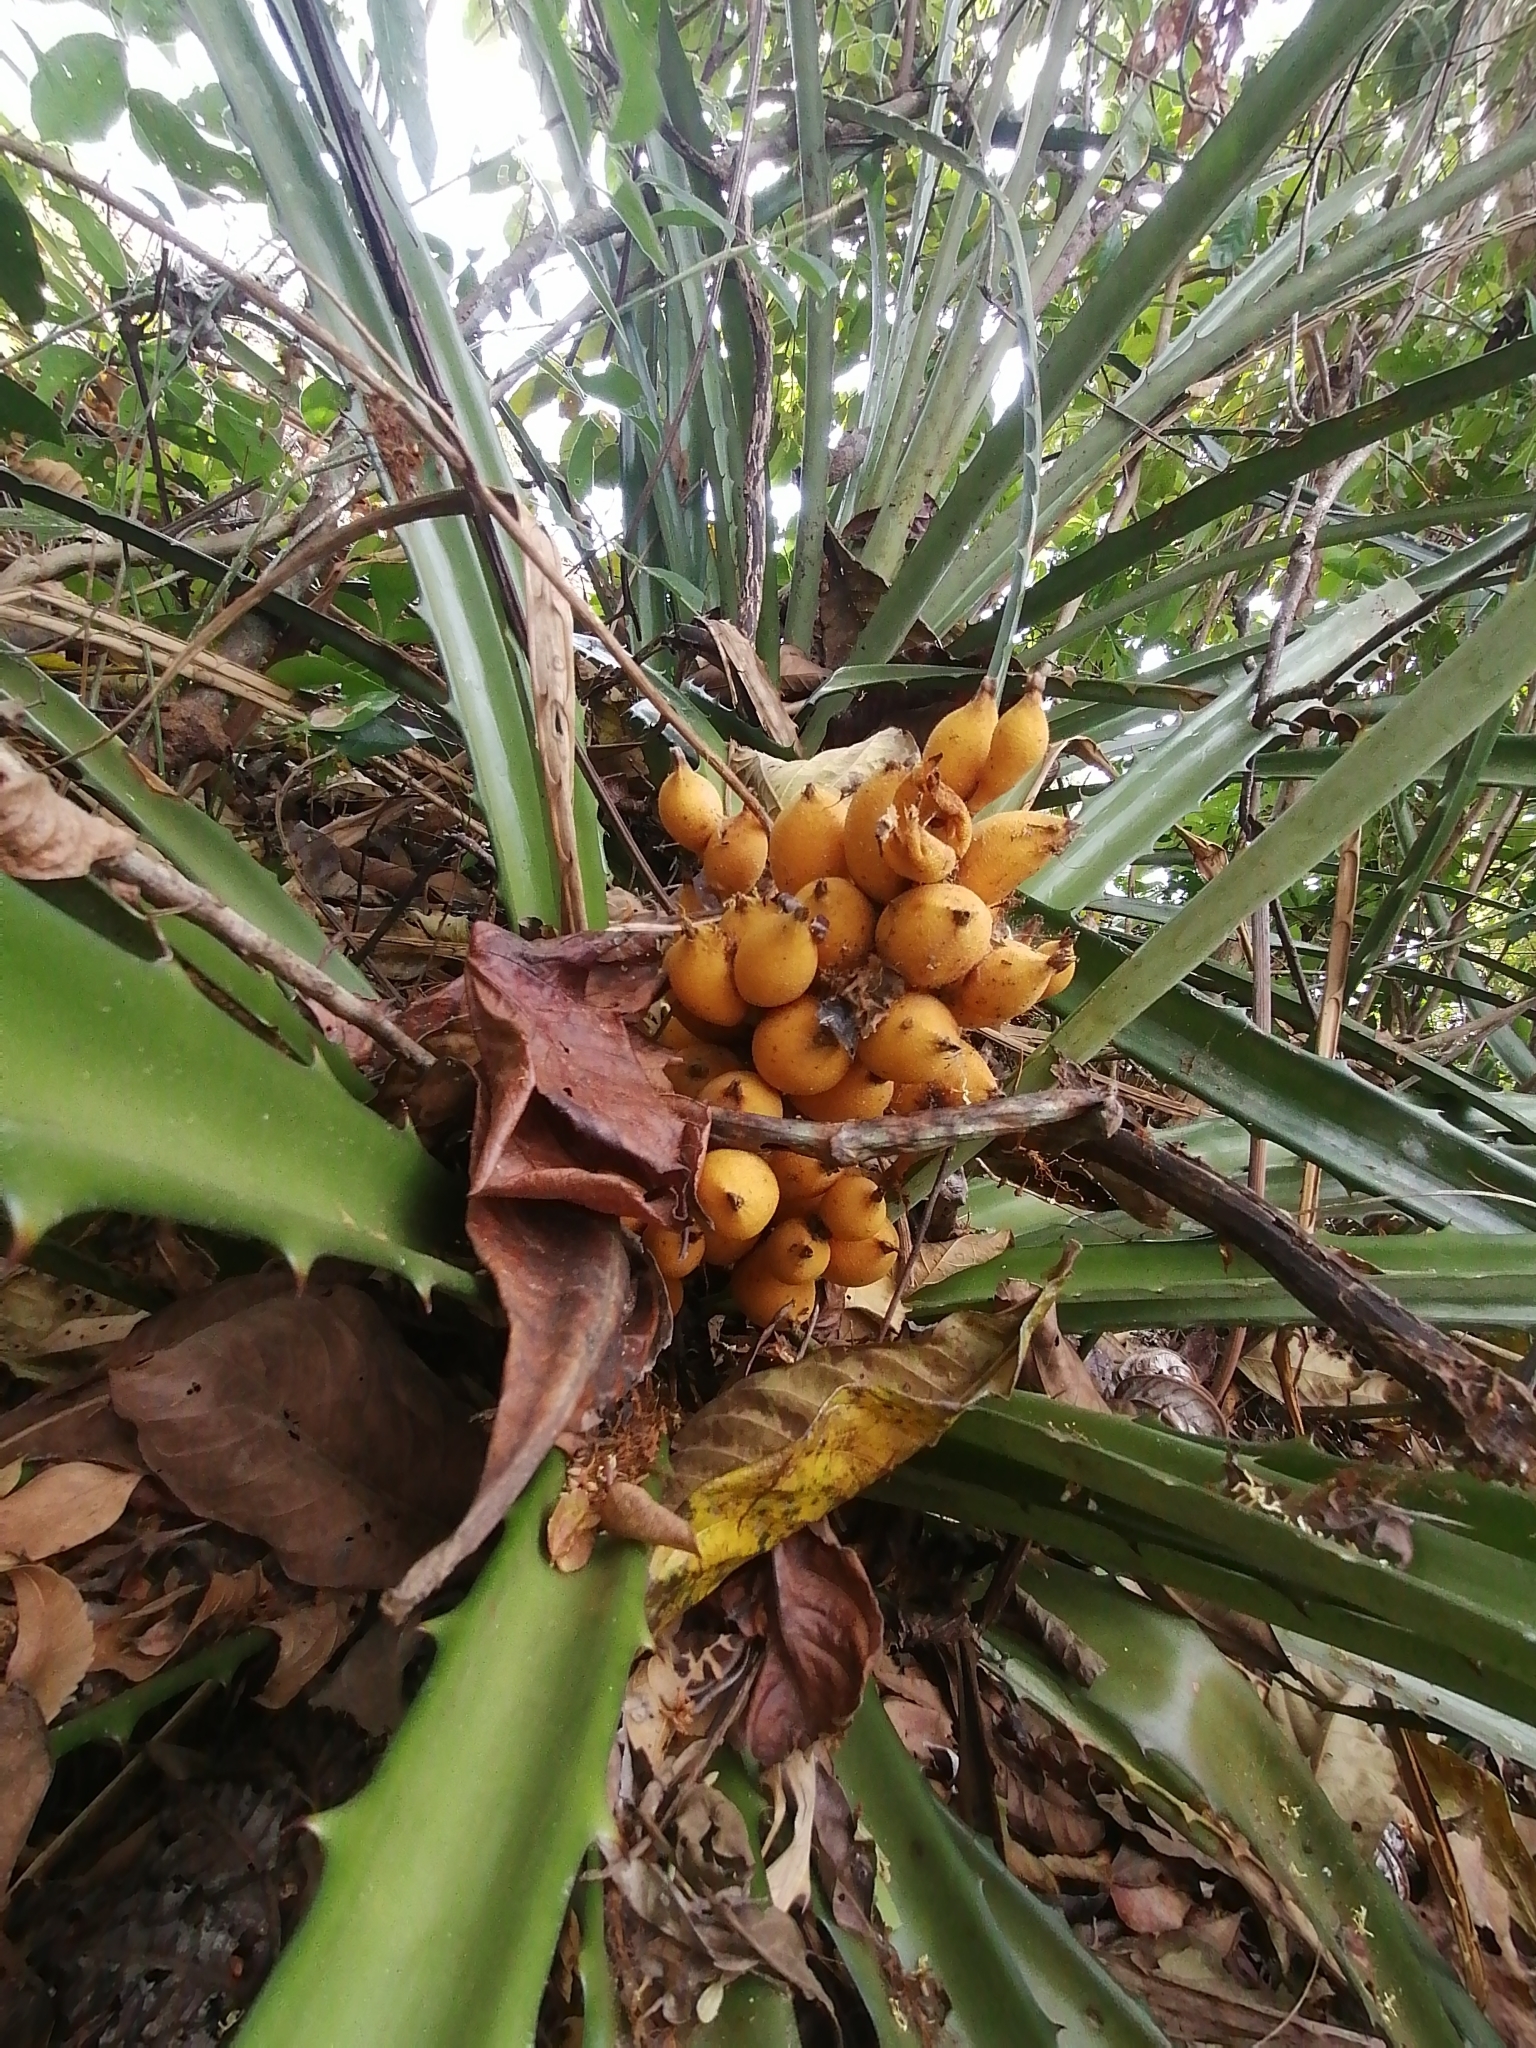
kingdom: Plantae
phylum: Tracheophyta
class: Liliopsida
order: Poales
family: Bromeliaceae
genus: Bromelia
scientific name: Bromelia pinguin
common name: Pinguin
